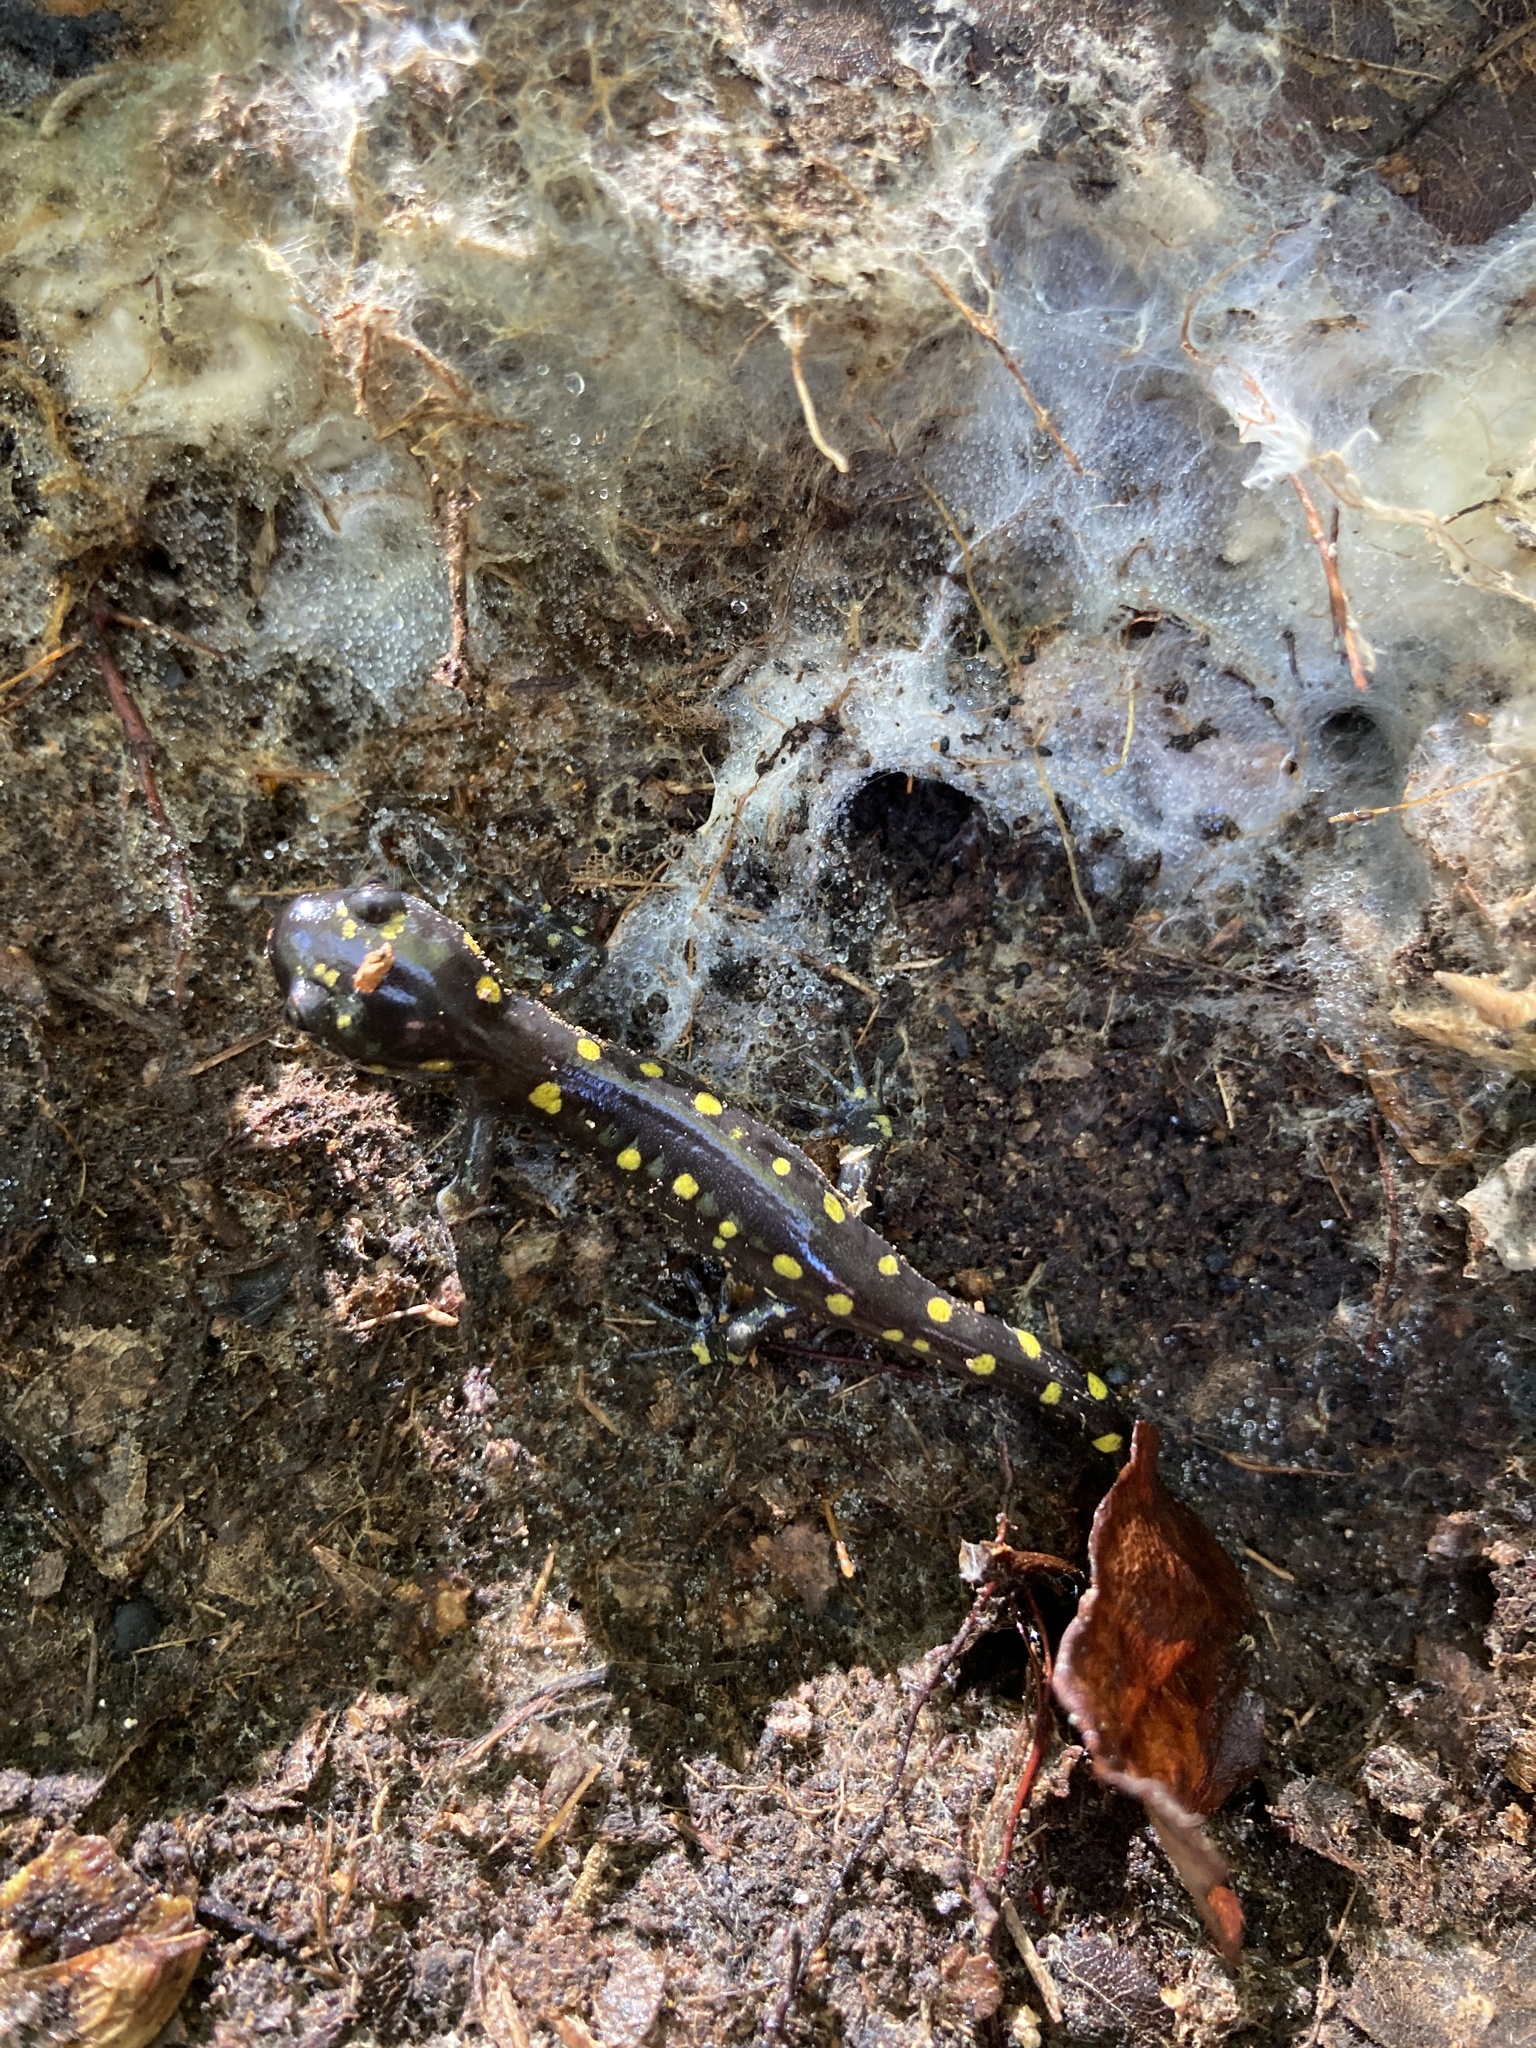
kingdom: Animalia
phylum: Chordata
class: Amphibia
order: Caudata
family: Ambystomatidae
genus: Ambystoma
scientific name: Ambystoma maculatum
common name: Spotted salamander
